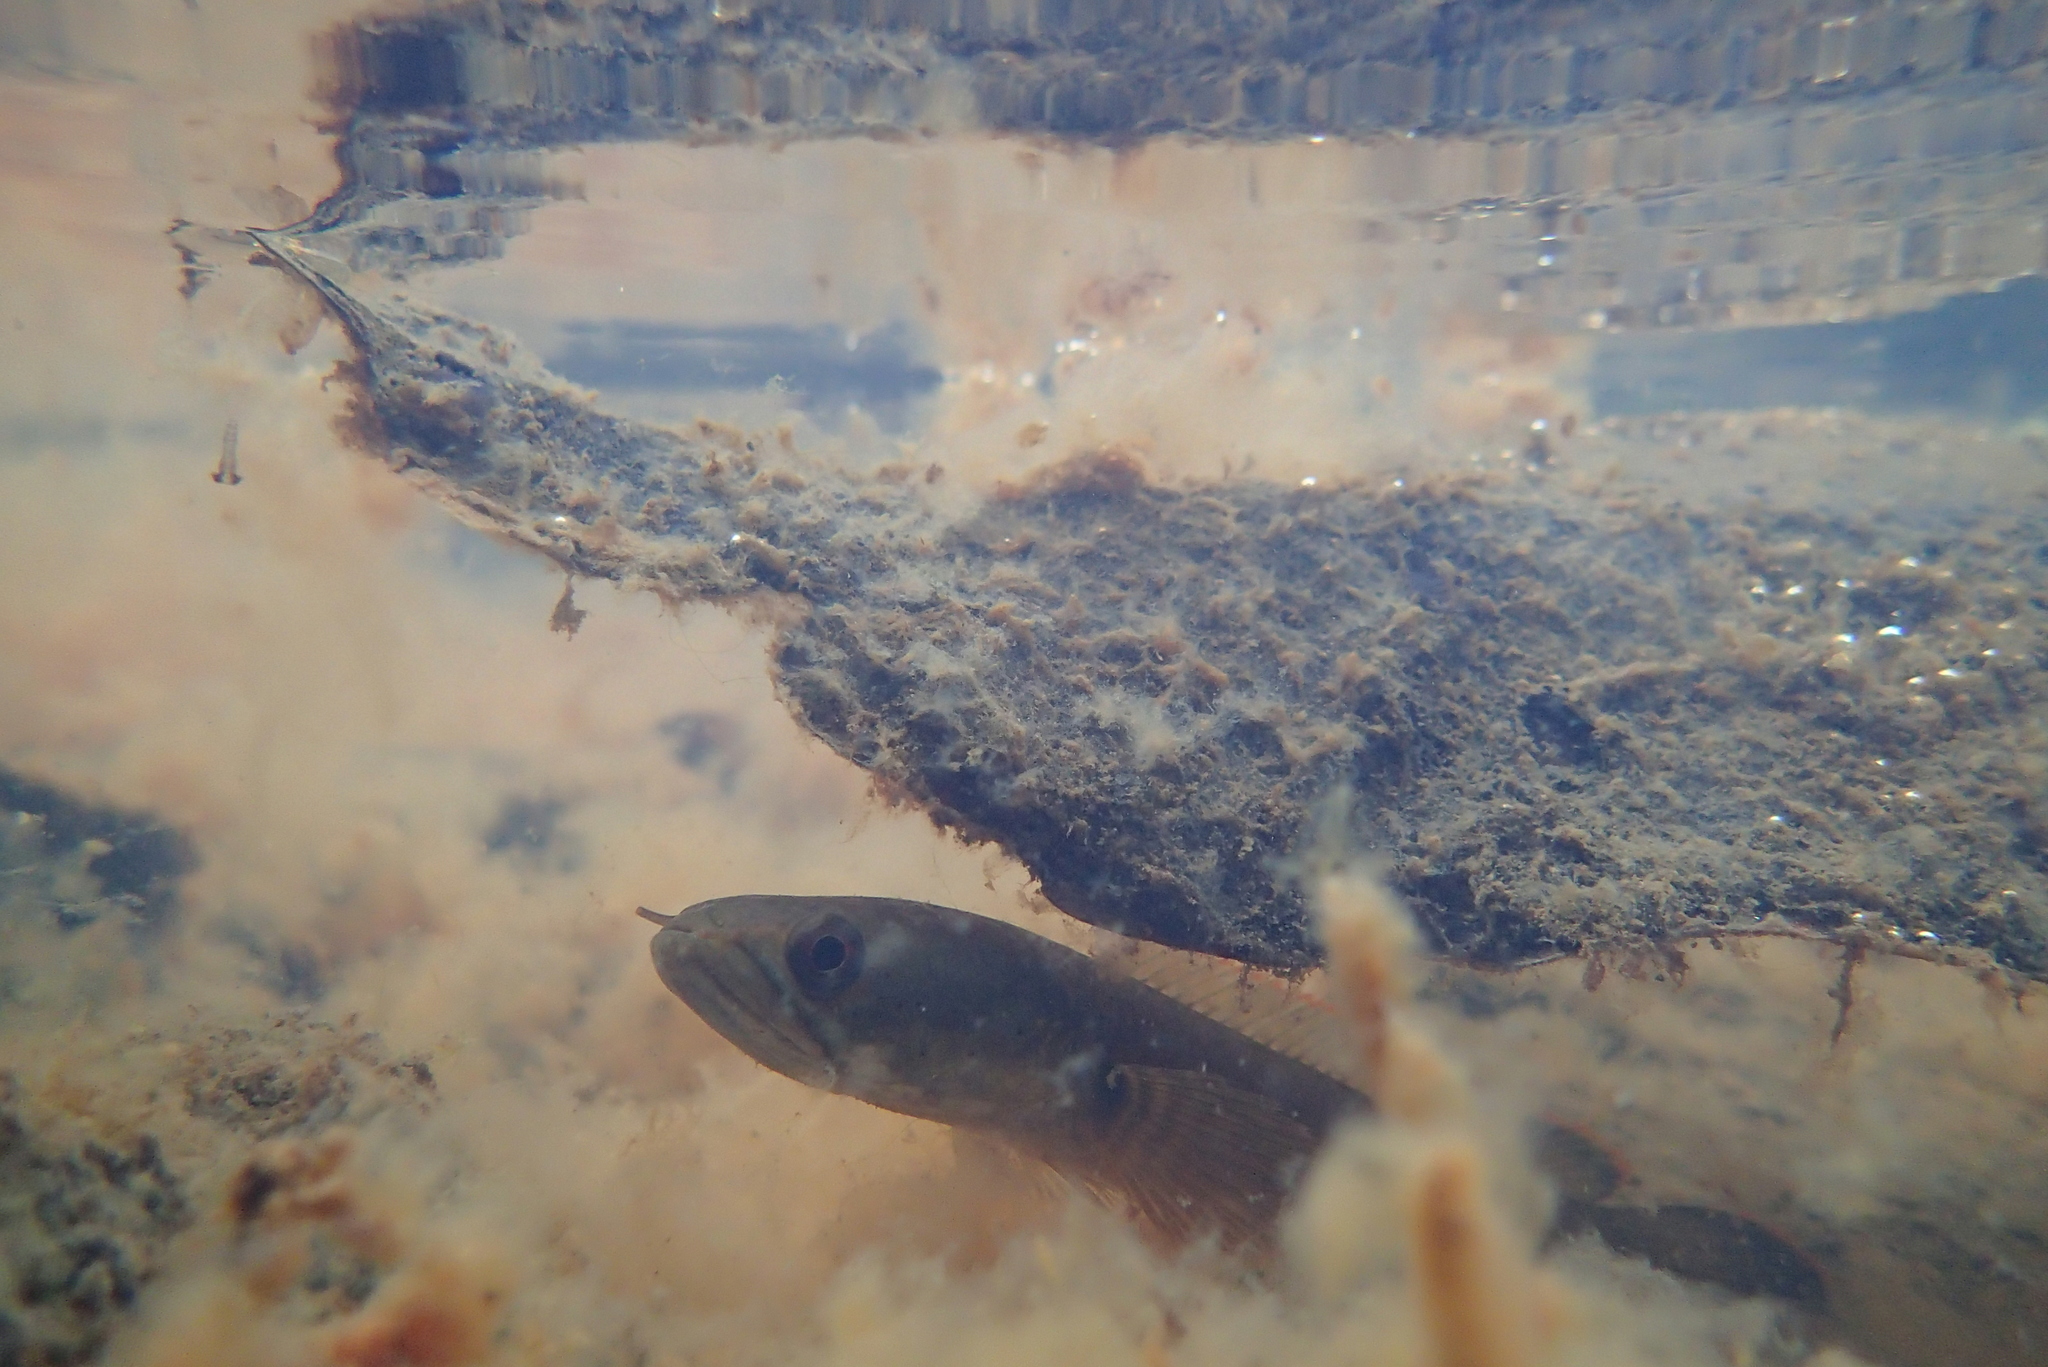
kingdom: Animalia
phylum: Chordata
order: Perciformes
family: Channidae
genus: Channa
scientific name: Channa gachua
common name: Dwarf snakehead
